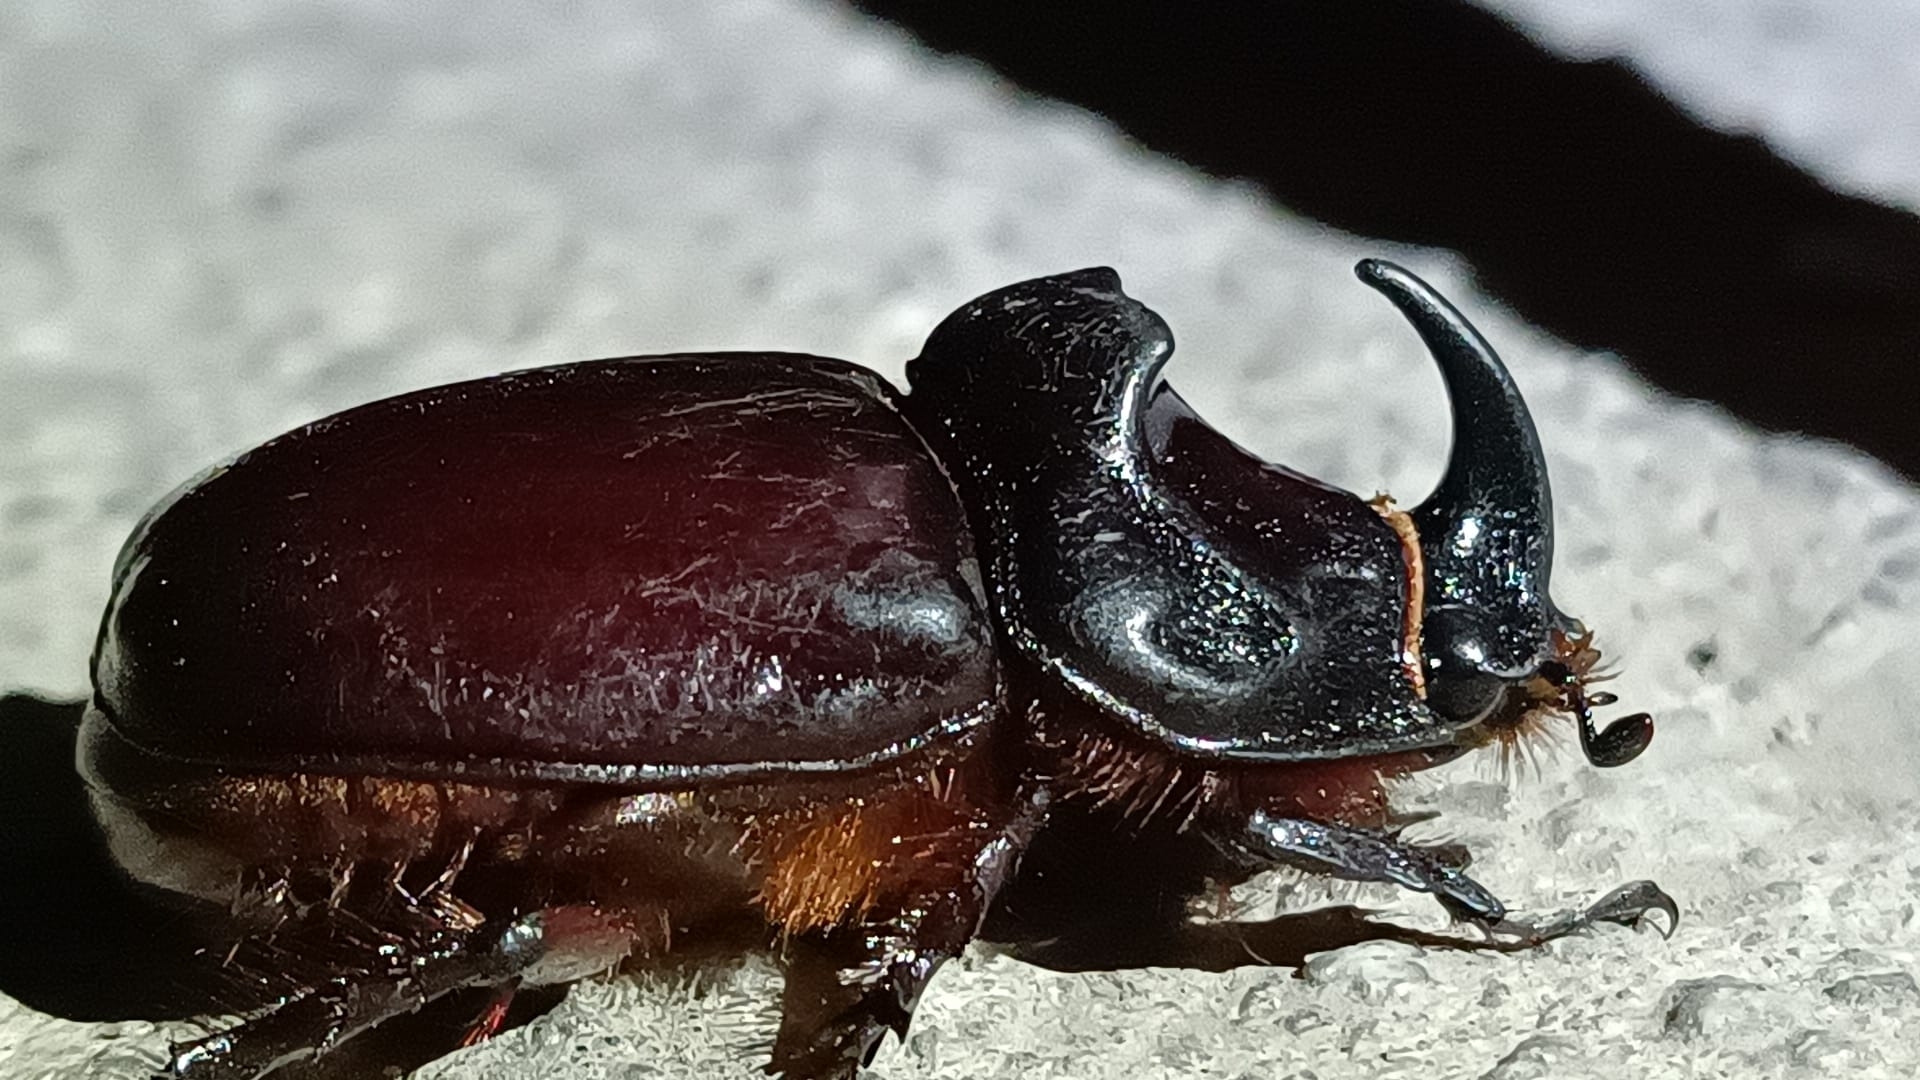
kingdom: Animalia
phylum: Arthropoda
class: Insecta
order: Coleoptera
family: Scarabaeidae
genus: Oryctes
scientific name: Oryctes nasicornis
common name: European rhinoceros beetle
